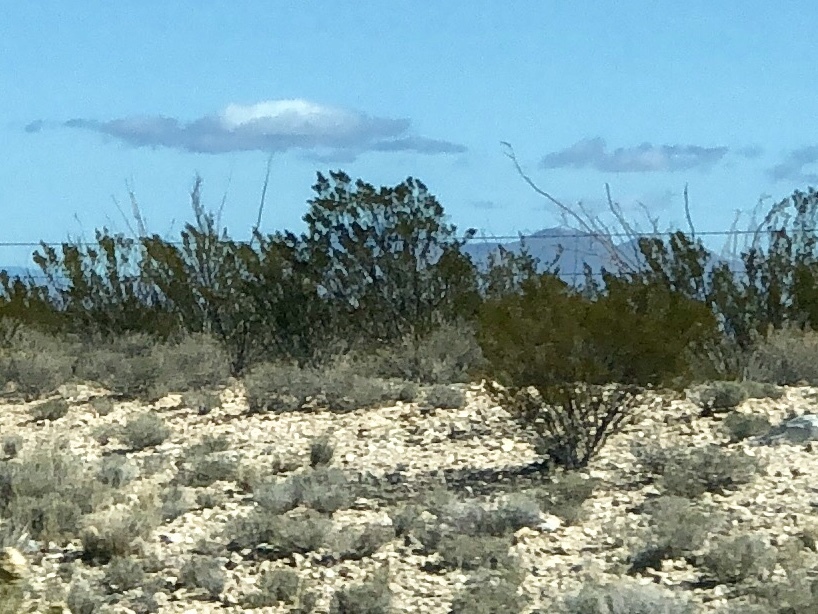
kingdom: Plantae
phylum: Tracheophyta
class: Magnoliopsida
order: Zygophyllales
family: Zygophyllaceae
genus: Larrea
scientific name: Larrea tridentata
